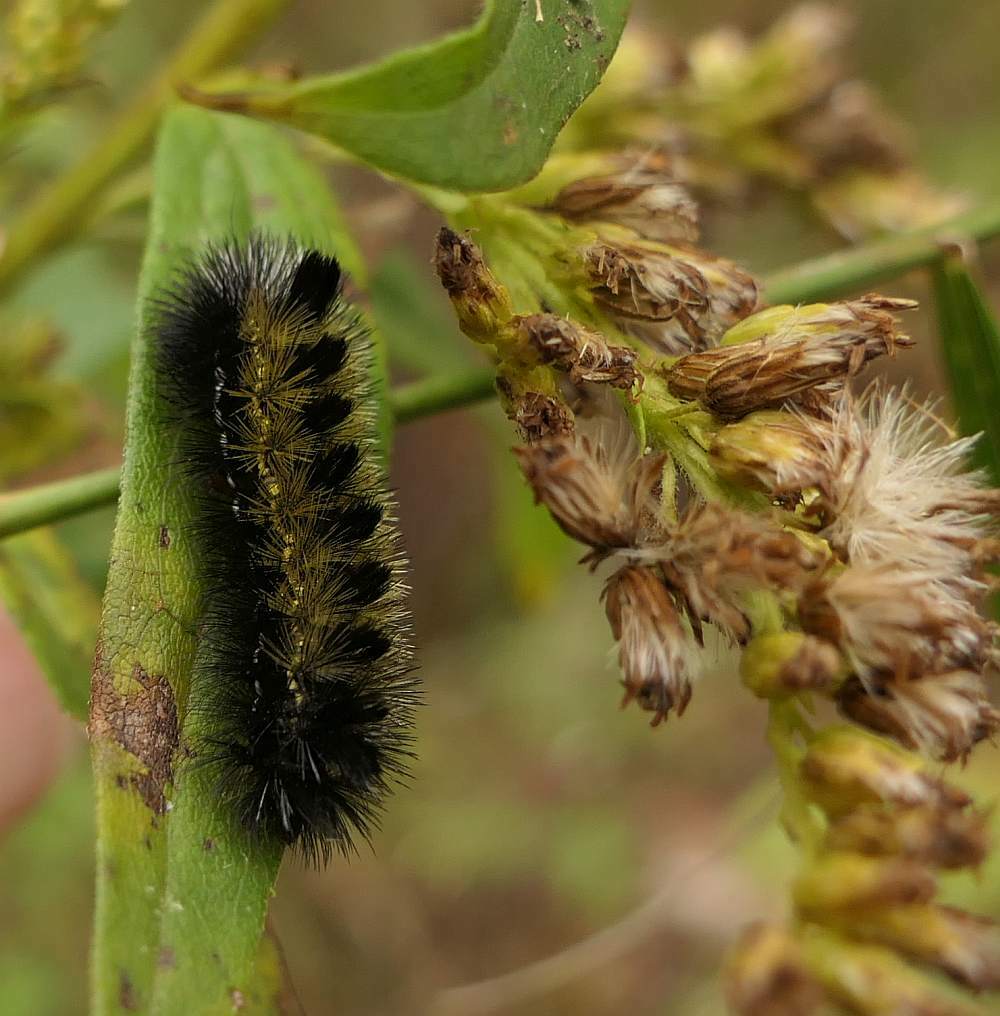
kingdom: Animalia
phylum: Arthropoda
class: Insecta
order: Lepidoptera
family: Erebidae
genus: Ctenucha
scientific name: Ctenucha virginica
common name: Virginia ctenucha moth
